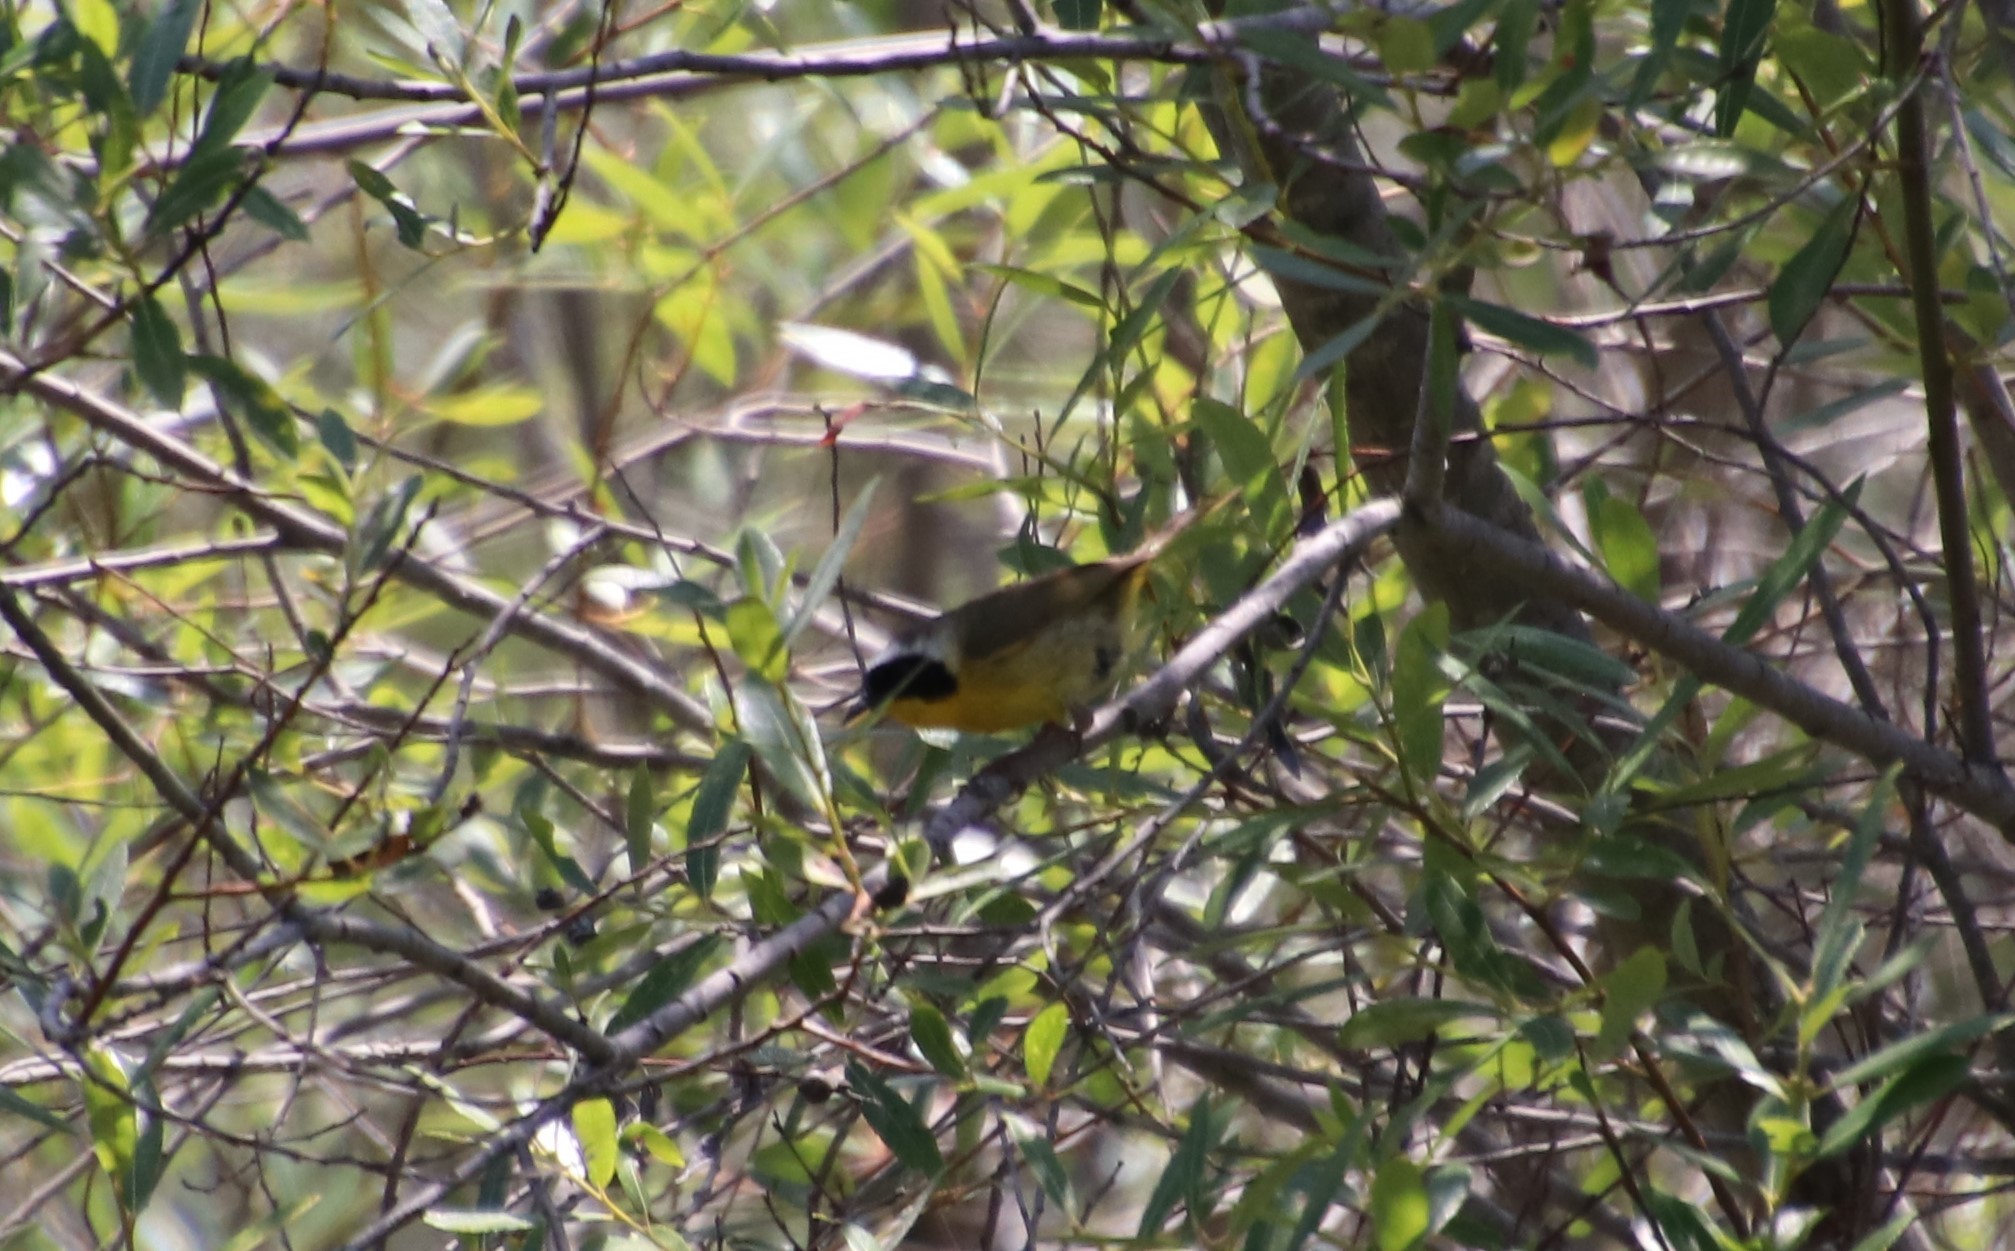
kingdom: Animalia
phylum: Chordata
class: Aves
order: Passeriformes
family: Parulidae
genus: Geothlypis
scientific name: Geothlypis trichas
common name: Common yellowthroat
